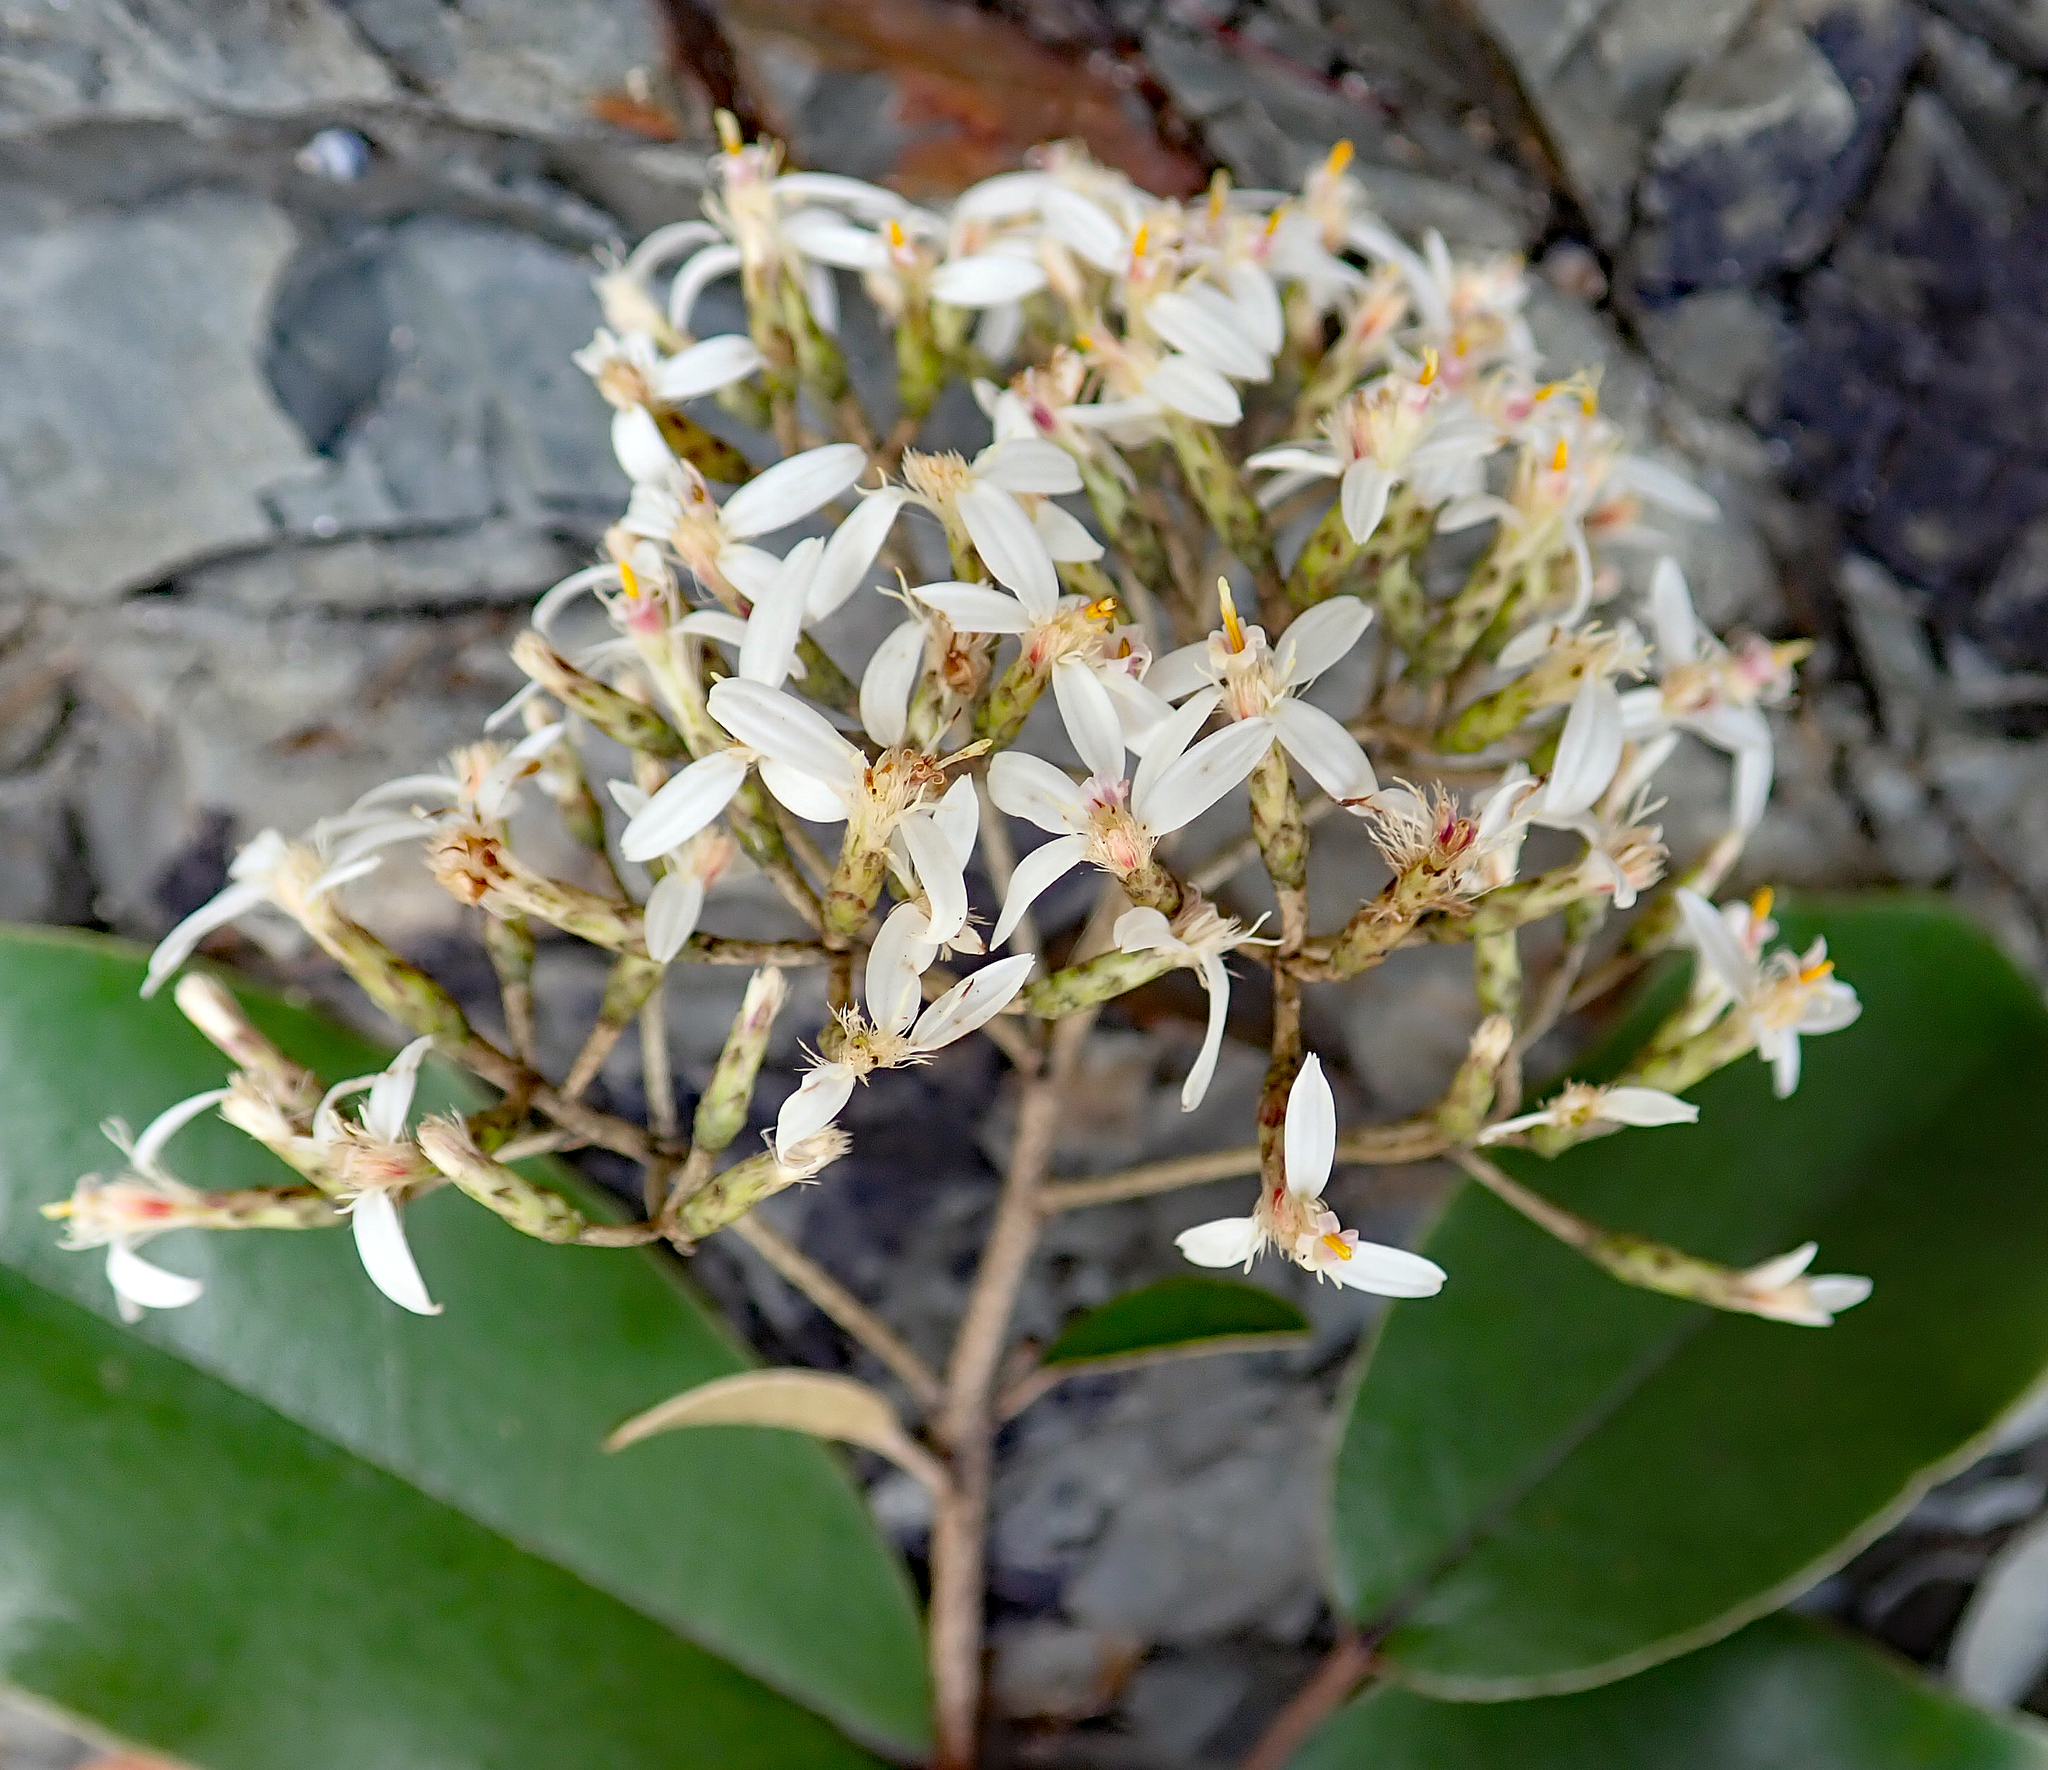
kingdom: Plantae
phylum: Tracheophyta
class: Magnoliopsida
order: Asterales
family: Asteraceae
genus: Olearia
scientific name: Olearia furfuracea
